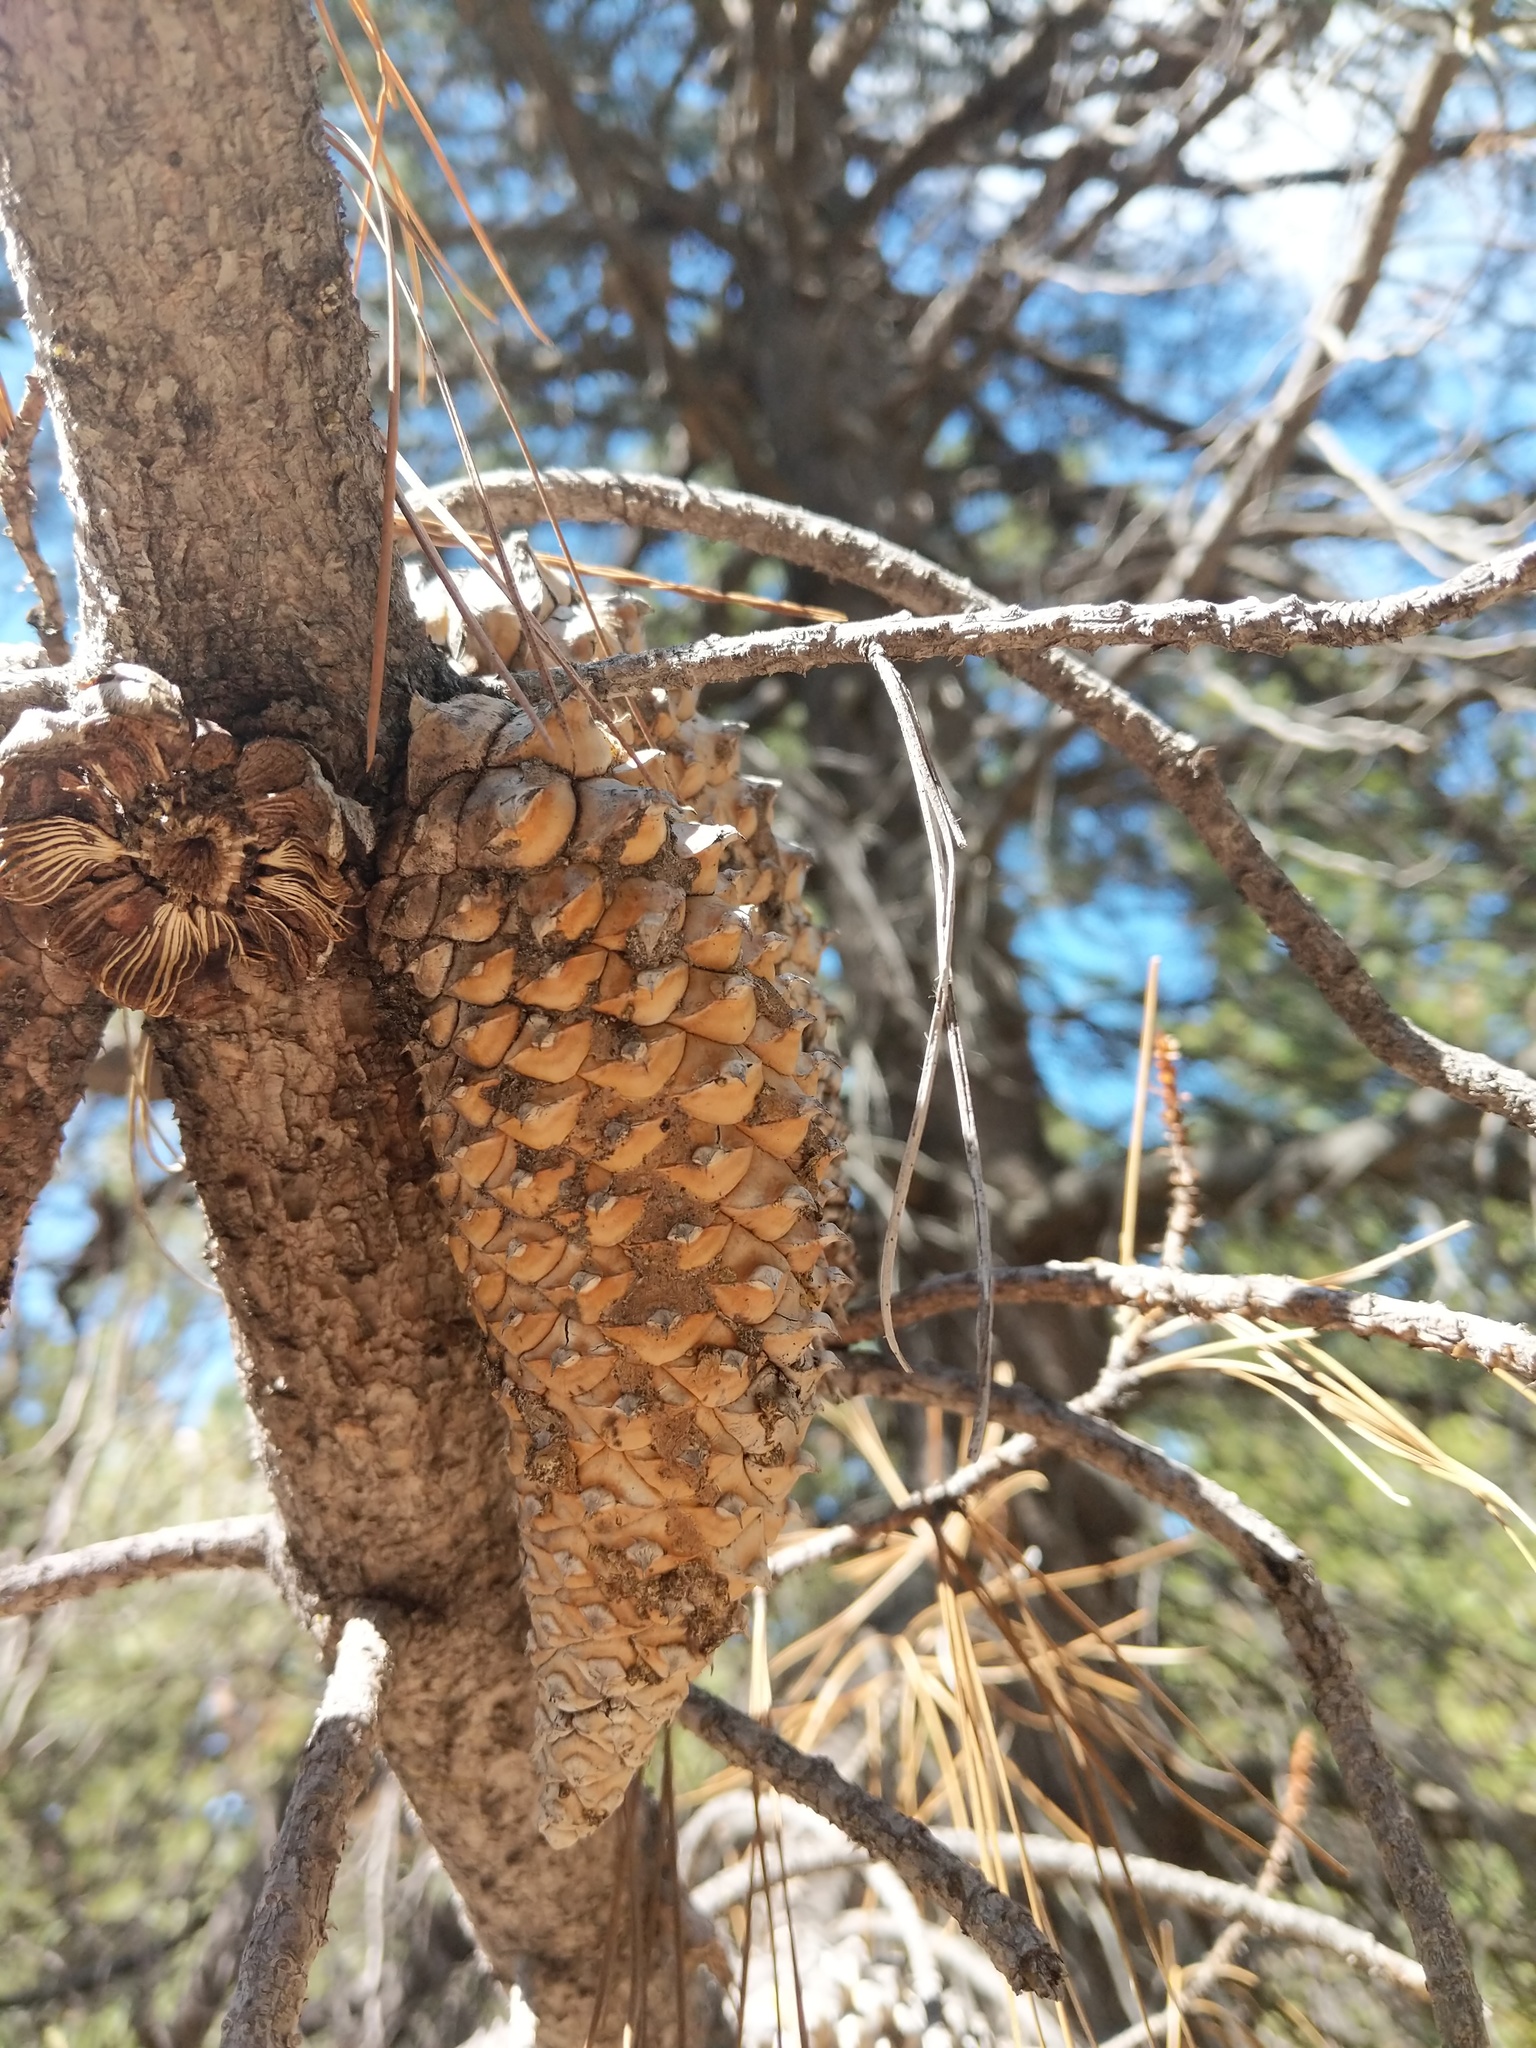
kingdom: Plantae
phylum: Tracheophyta
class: Pinopsida
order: Pinales
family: Pinaceae
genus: Pinus
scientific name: Pinus attenuata
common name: Knobcone pine
